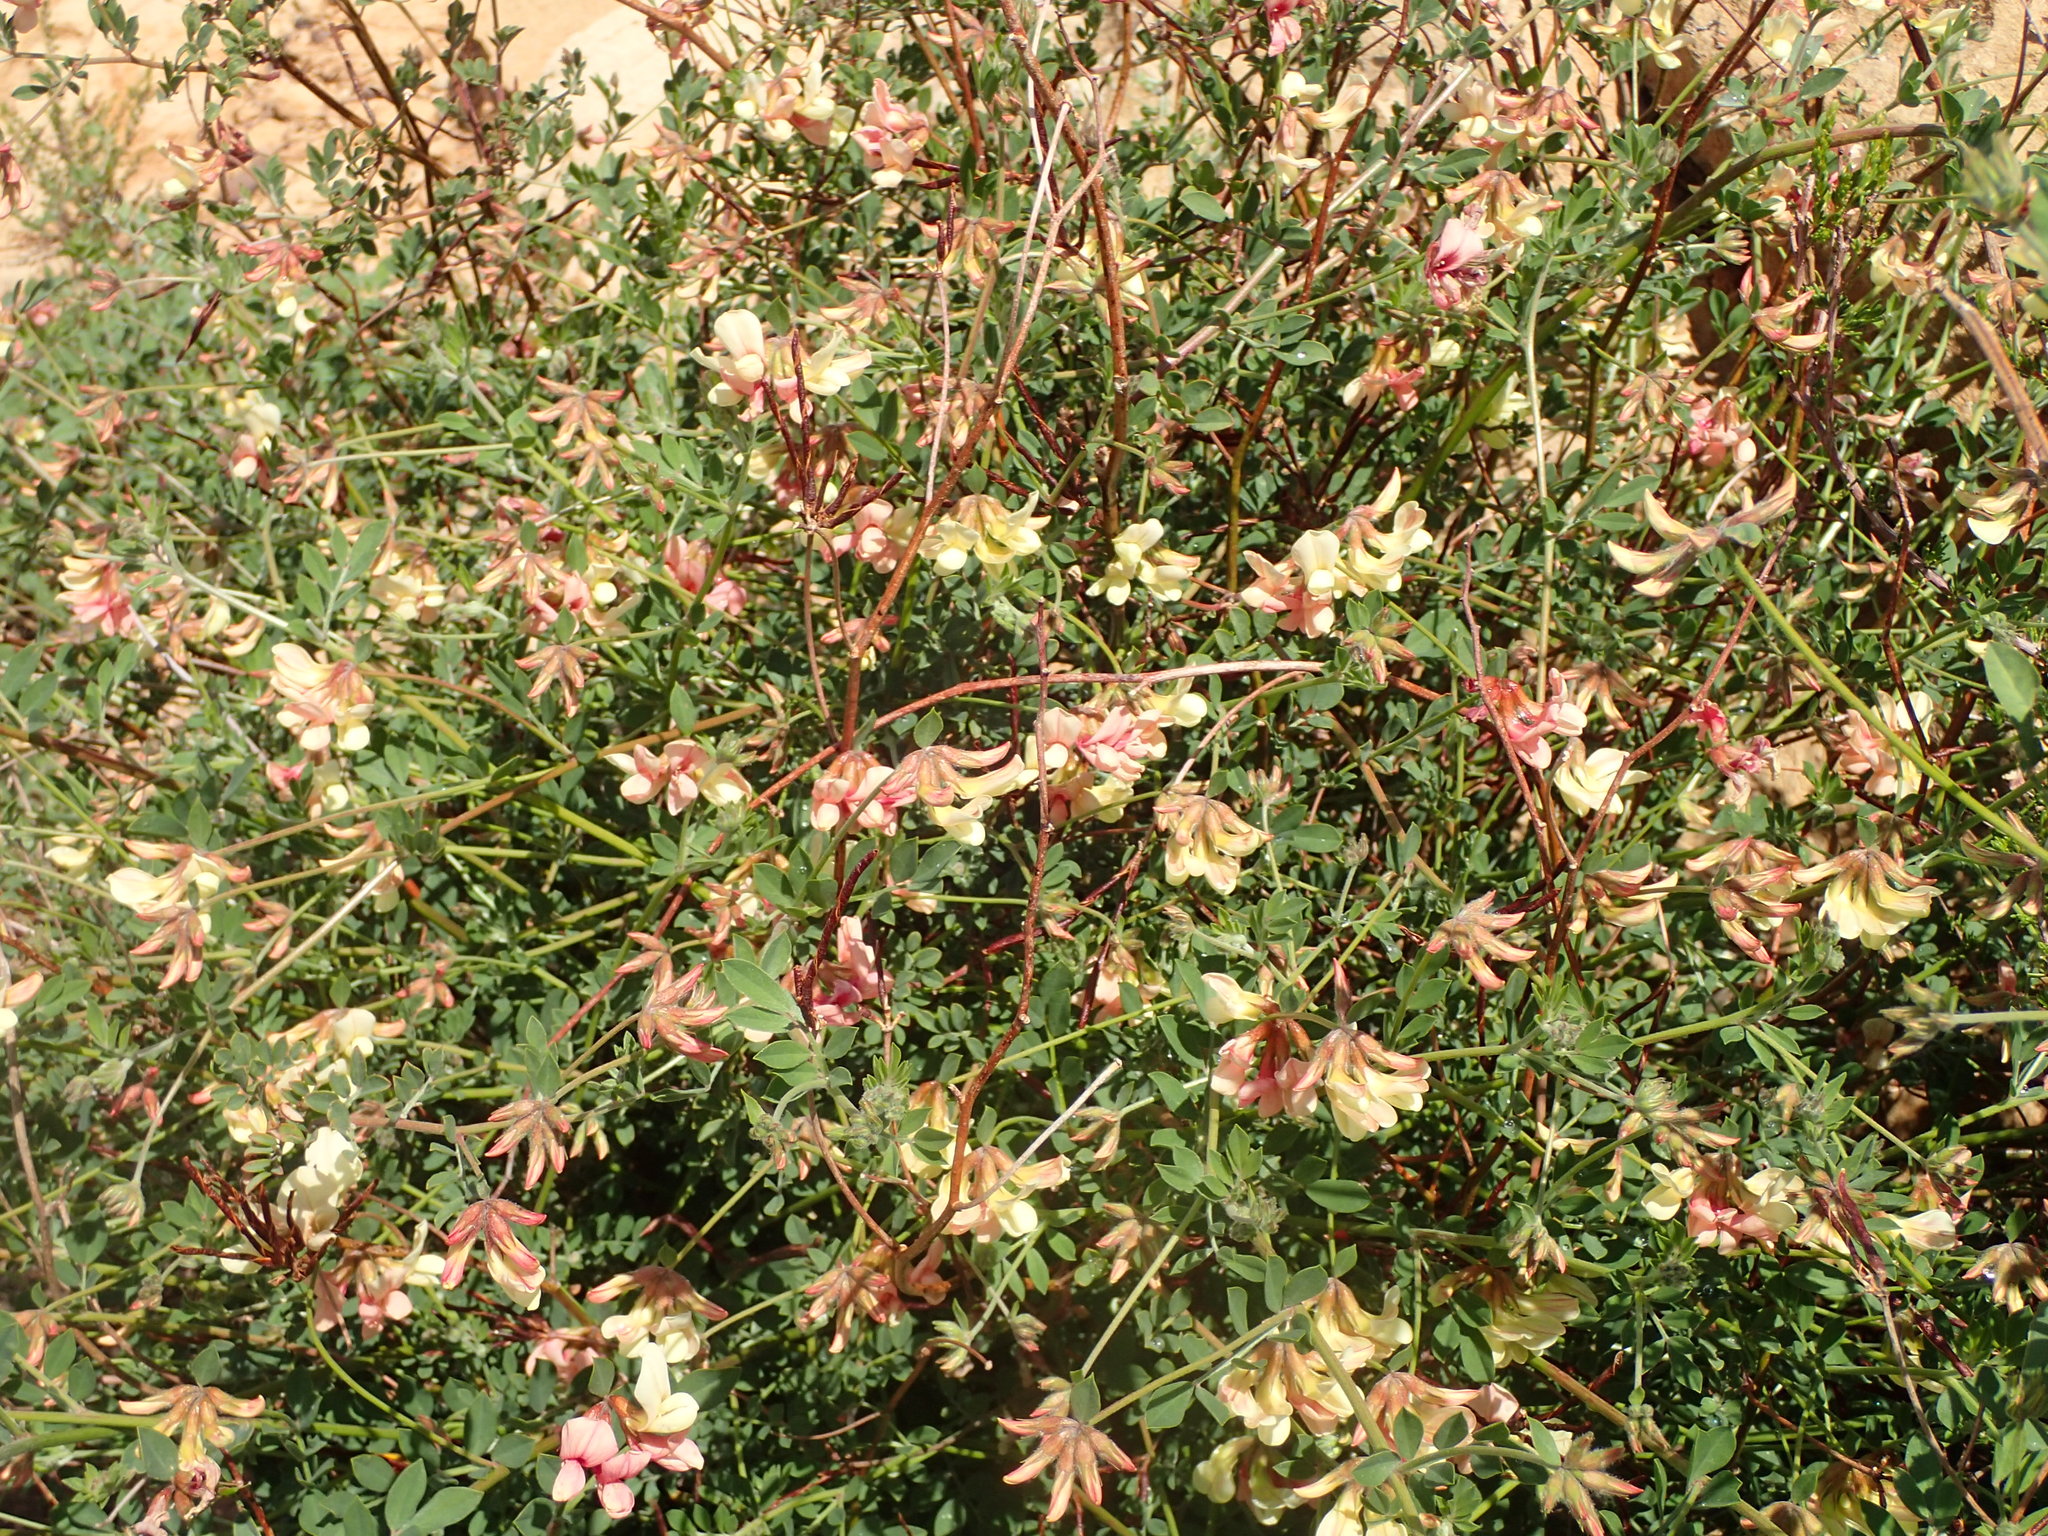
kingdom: Plantae
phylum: Tracheophyta
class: Magnoliopsida
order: Fabales
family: Fabaceae
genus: Acmispon
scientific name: Acmispon grandiflorus
